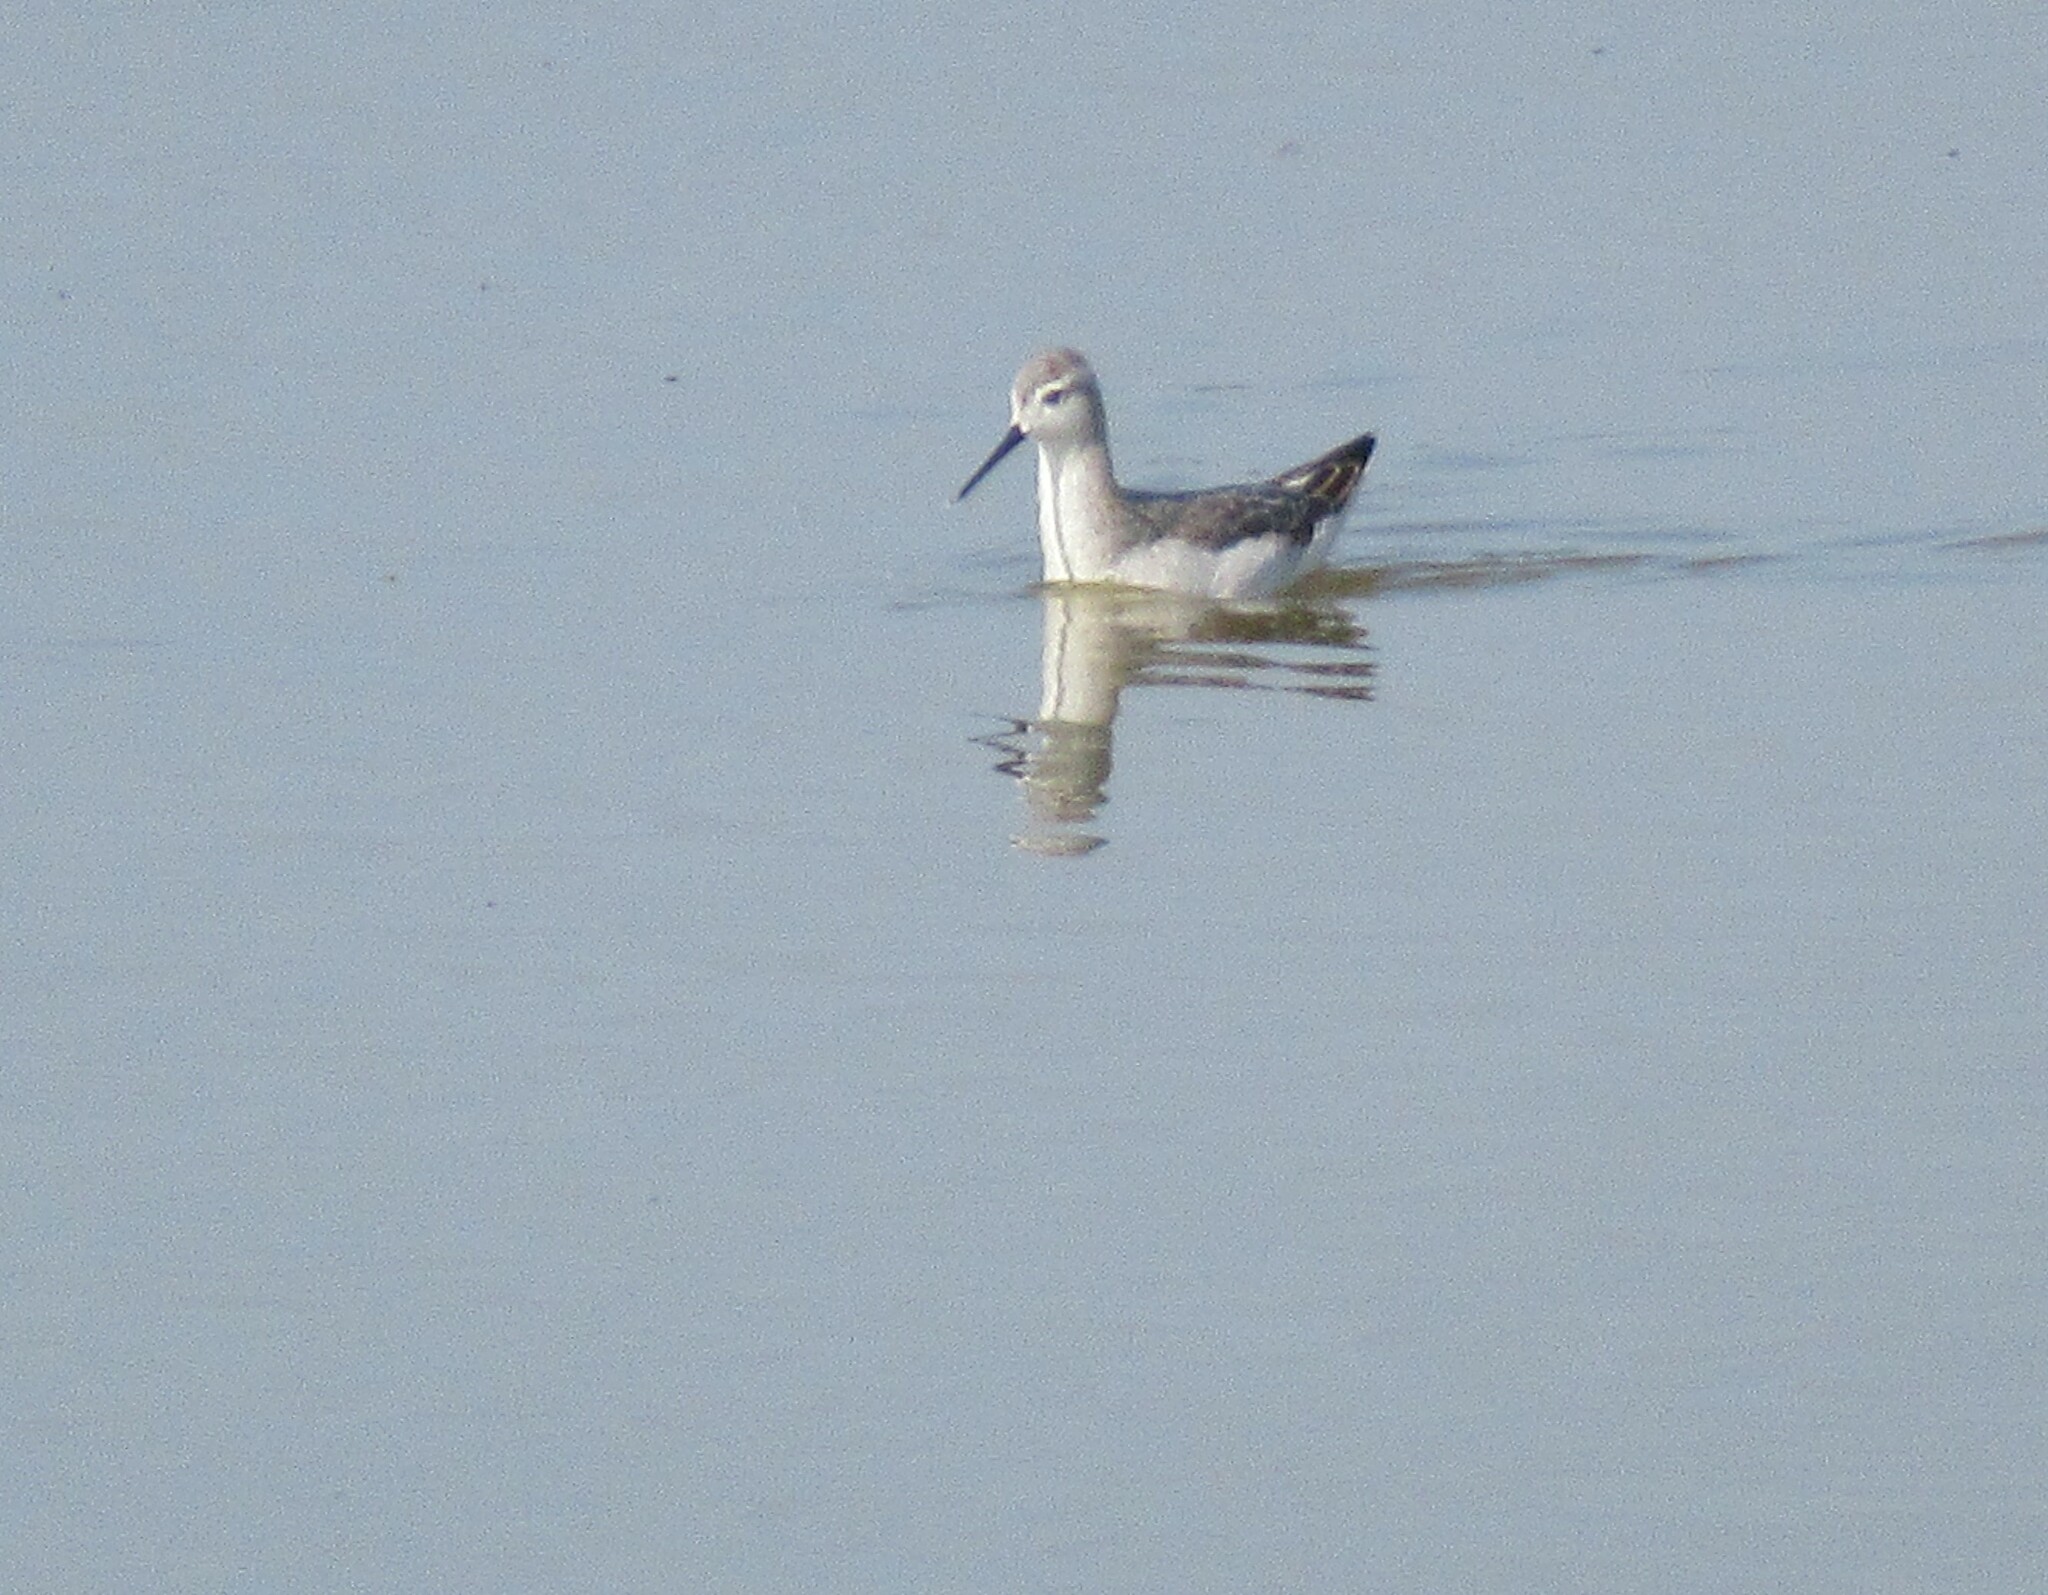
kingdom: Animalia
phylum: Chordata
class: Aves
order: Charadriiformes
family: Scolopacidae
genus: Phalaropus
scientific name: Phalaropus tricolor
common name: Wilson's phalarope
